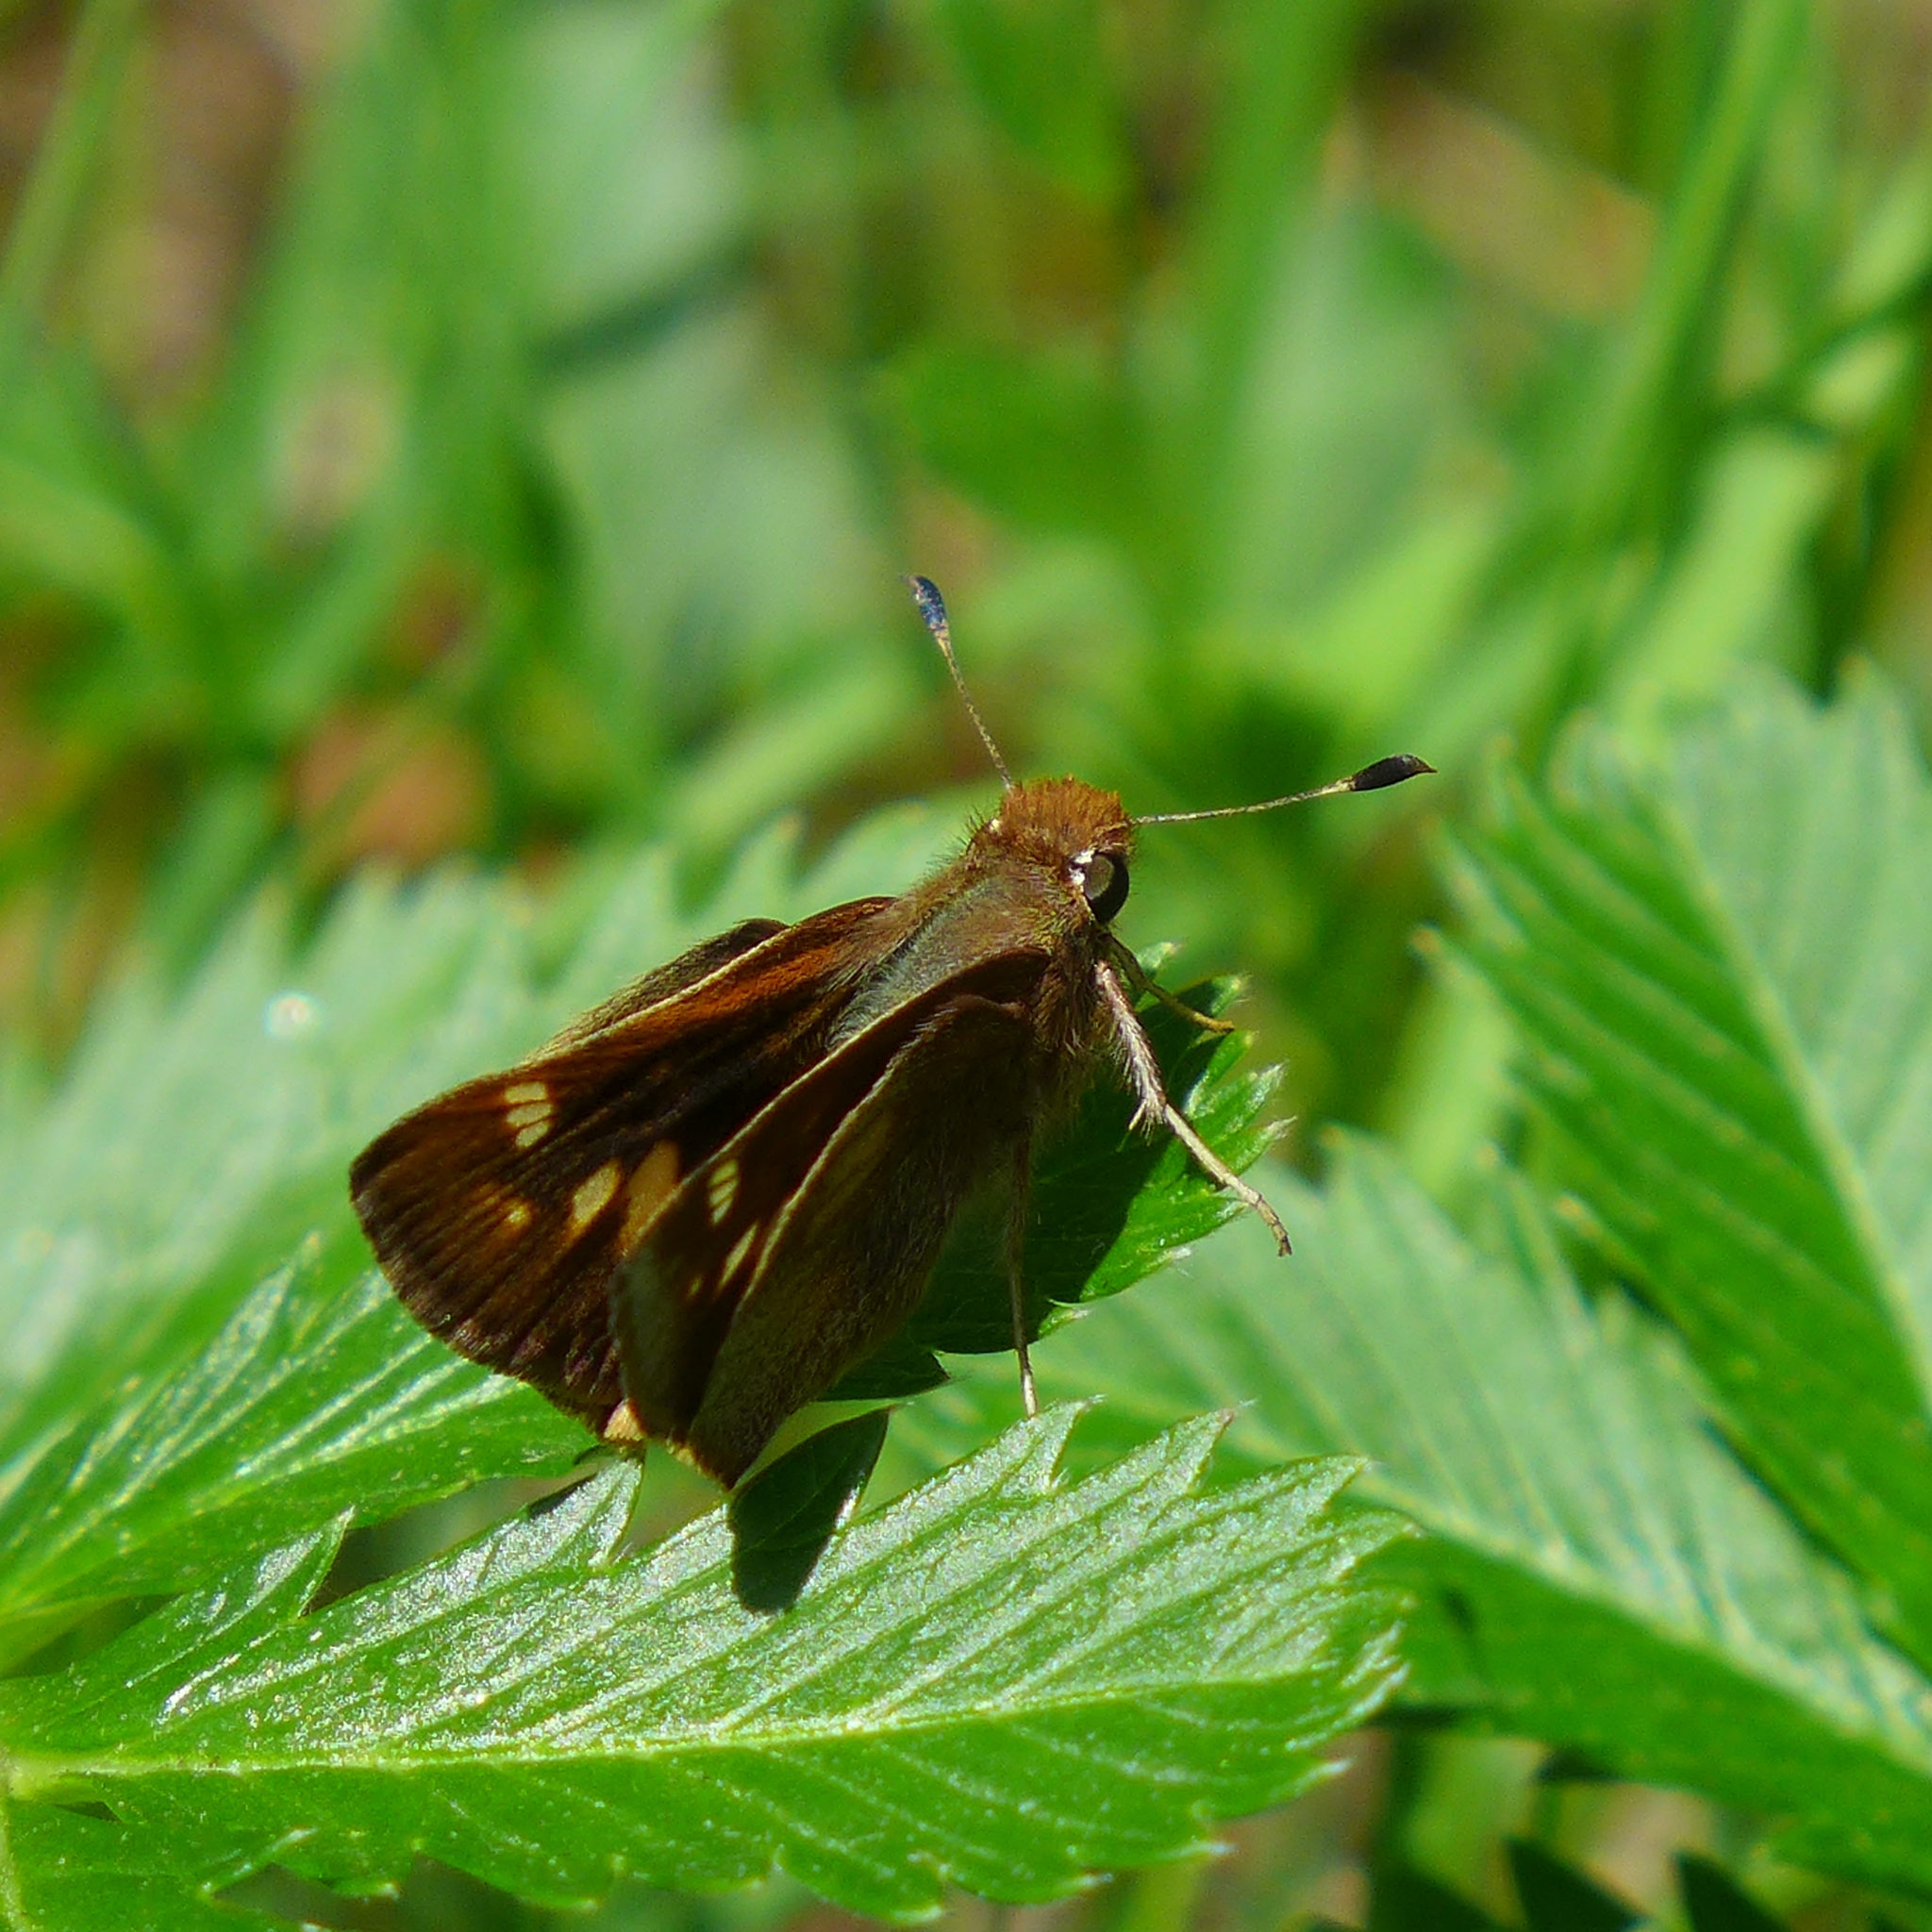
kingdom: Animalia
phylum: Arthropoda
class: Insecta
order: Lepidoptera
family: Hesperiidae
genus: Lon
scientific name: Lon melane
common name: Umber skipper
